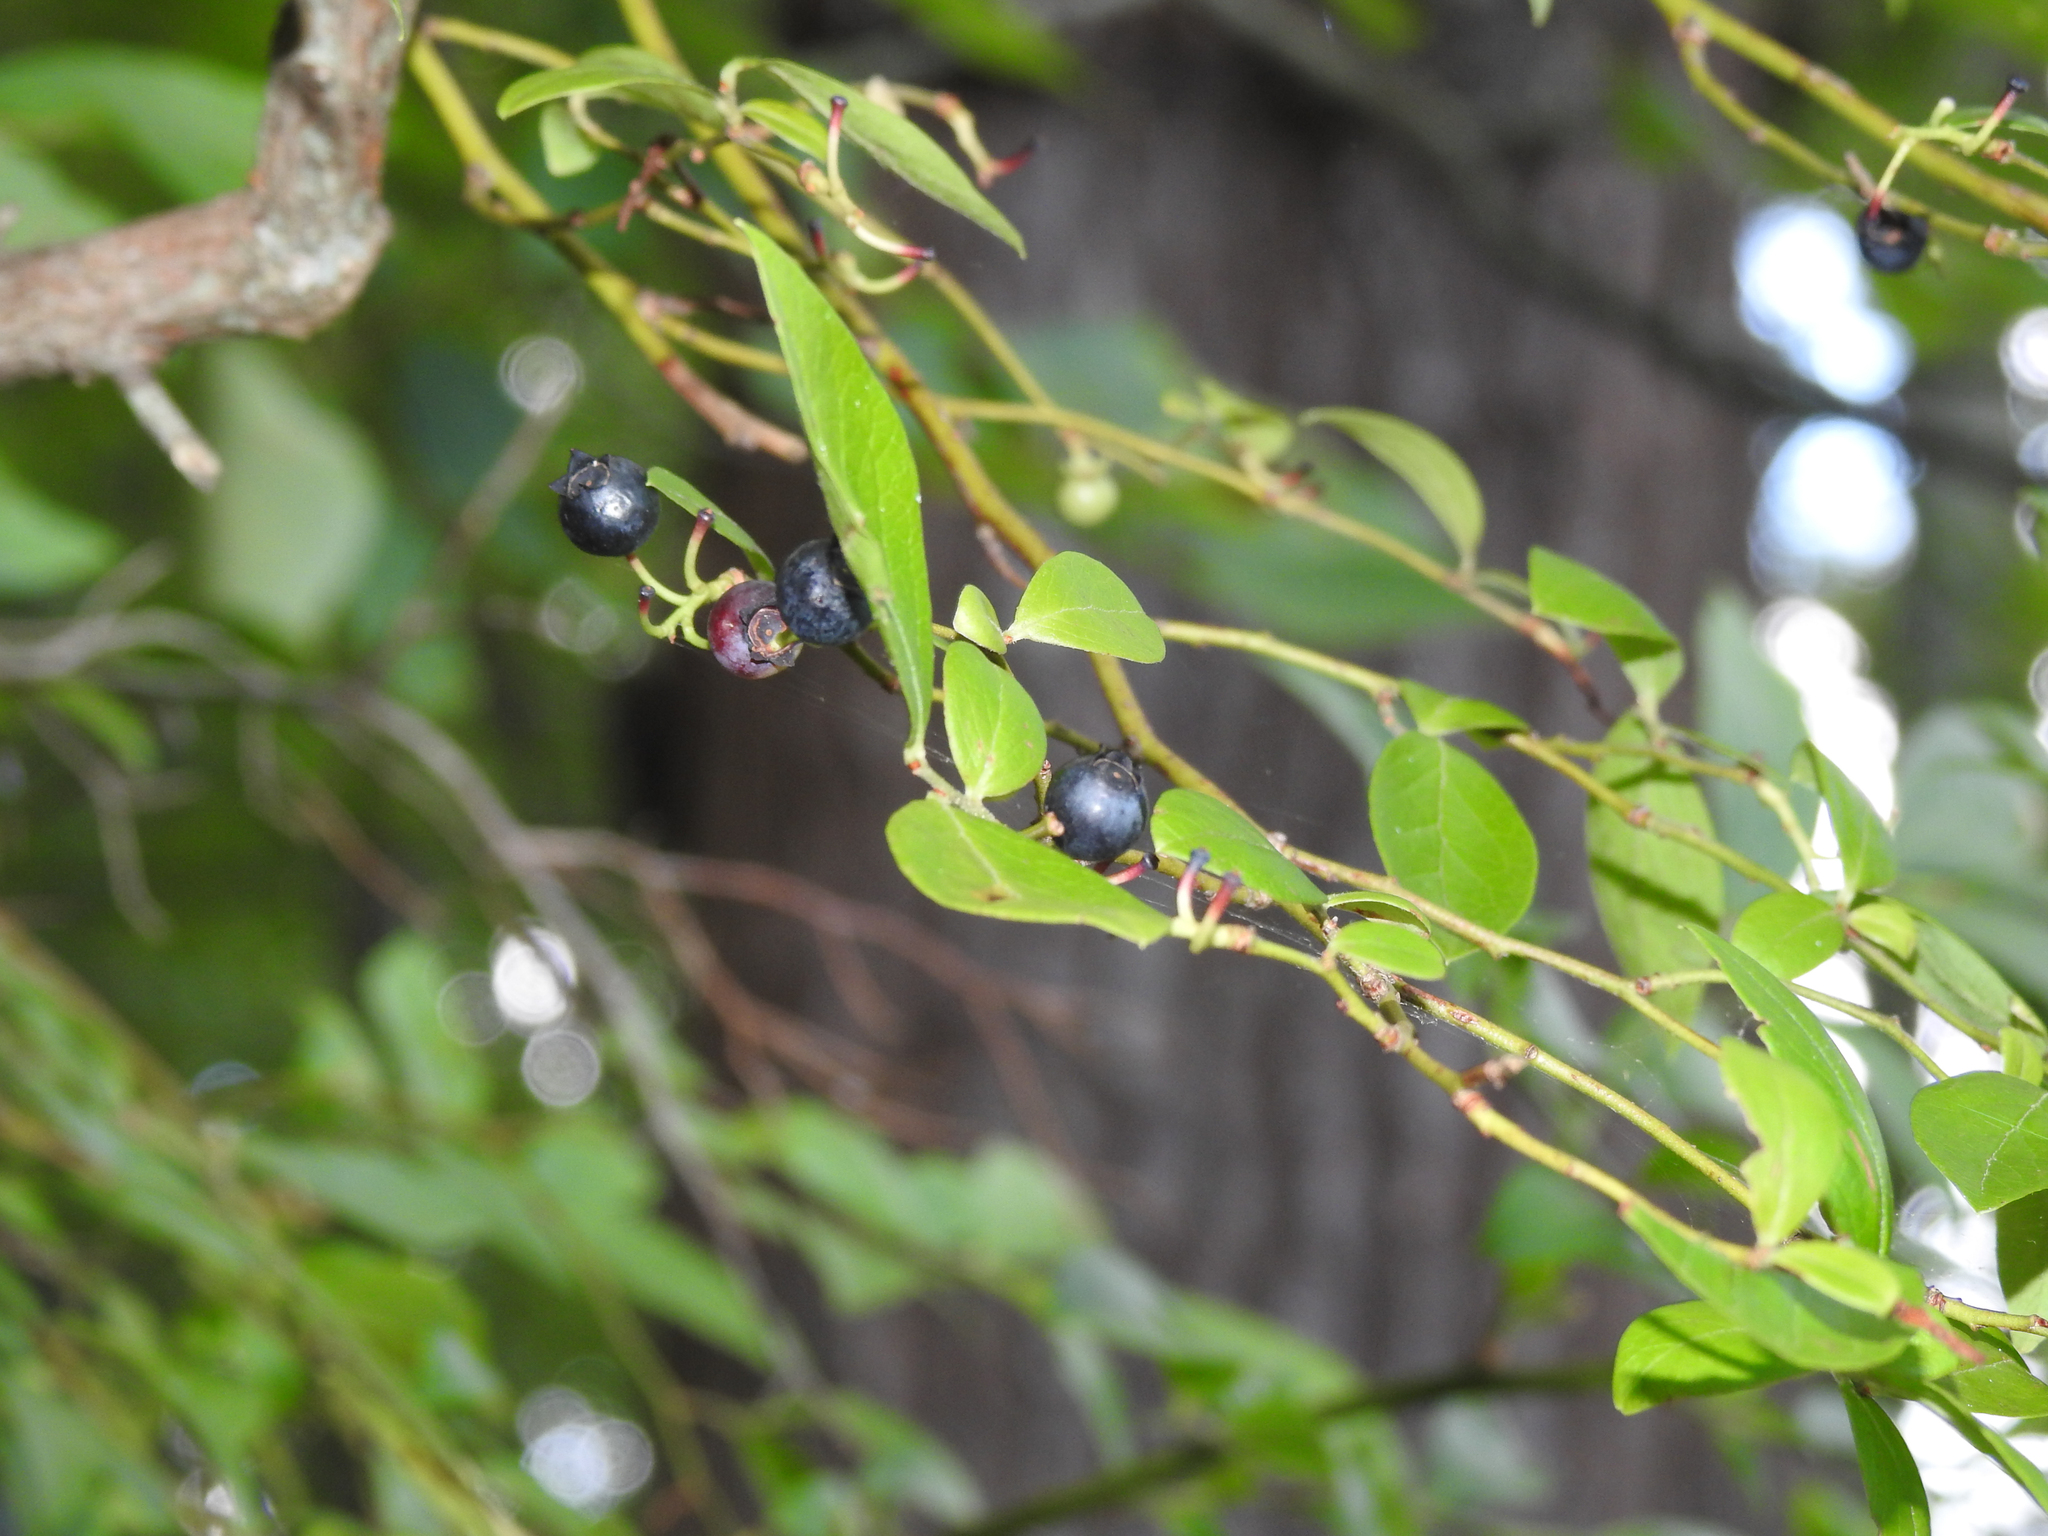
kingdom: Plantae
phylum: Tracheophyta
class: Magnoliopsida
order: Ericales
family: Ericaceae
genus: Vaccinium
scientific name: Vaccinium corymbosum
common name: Blueberry
